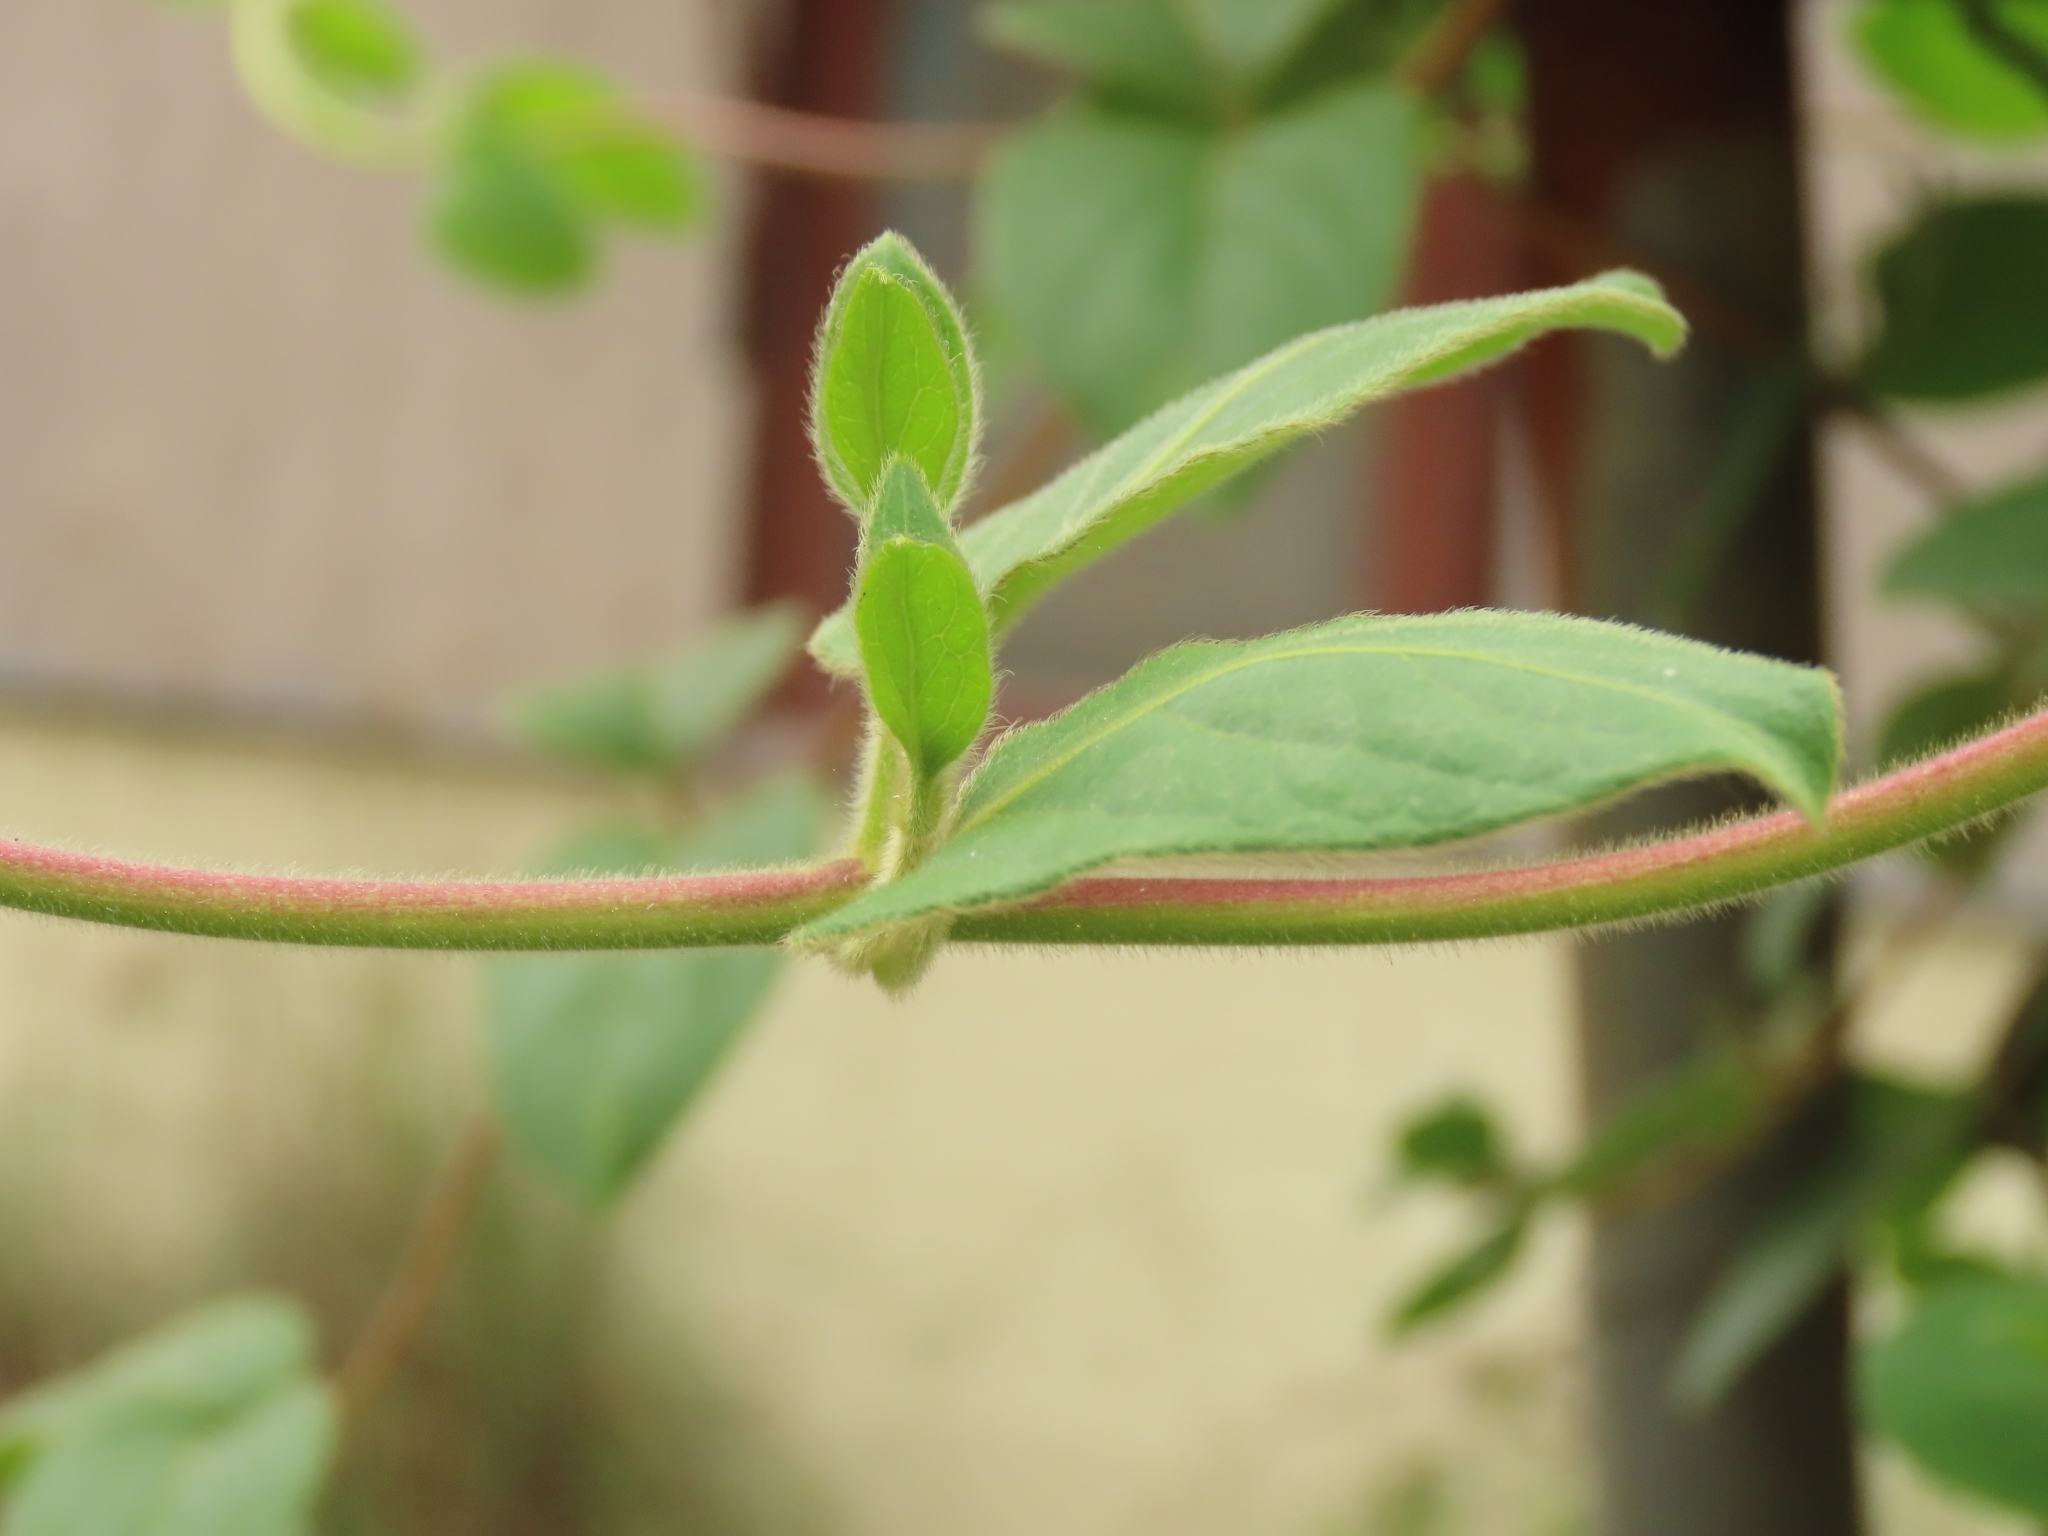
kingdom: Plantae
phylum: Tracheophyta
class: Magnoliopsida
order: Dipsacales
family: Caprifoliaceae
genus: Lonicera
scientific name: Lonicera japonica
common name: Japanese honeysuckle
